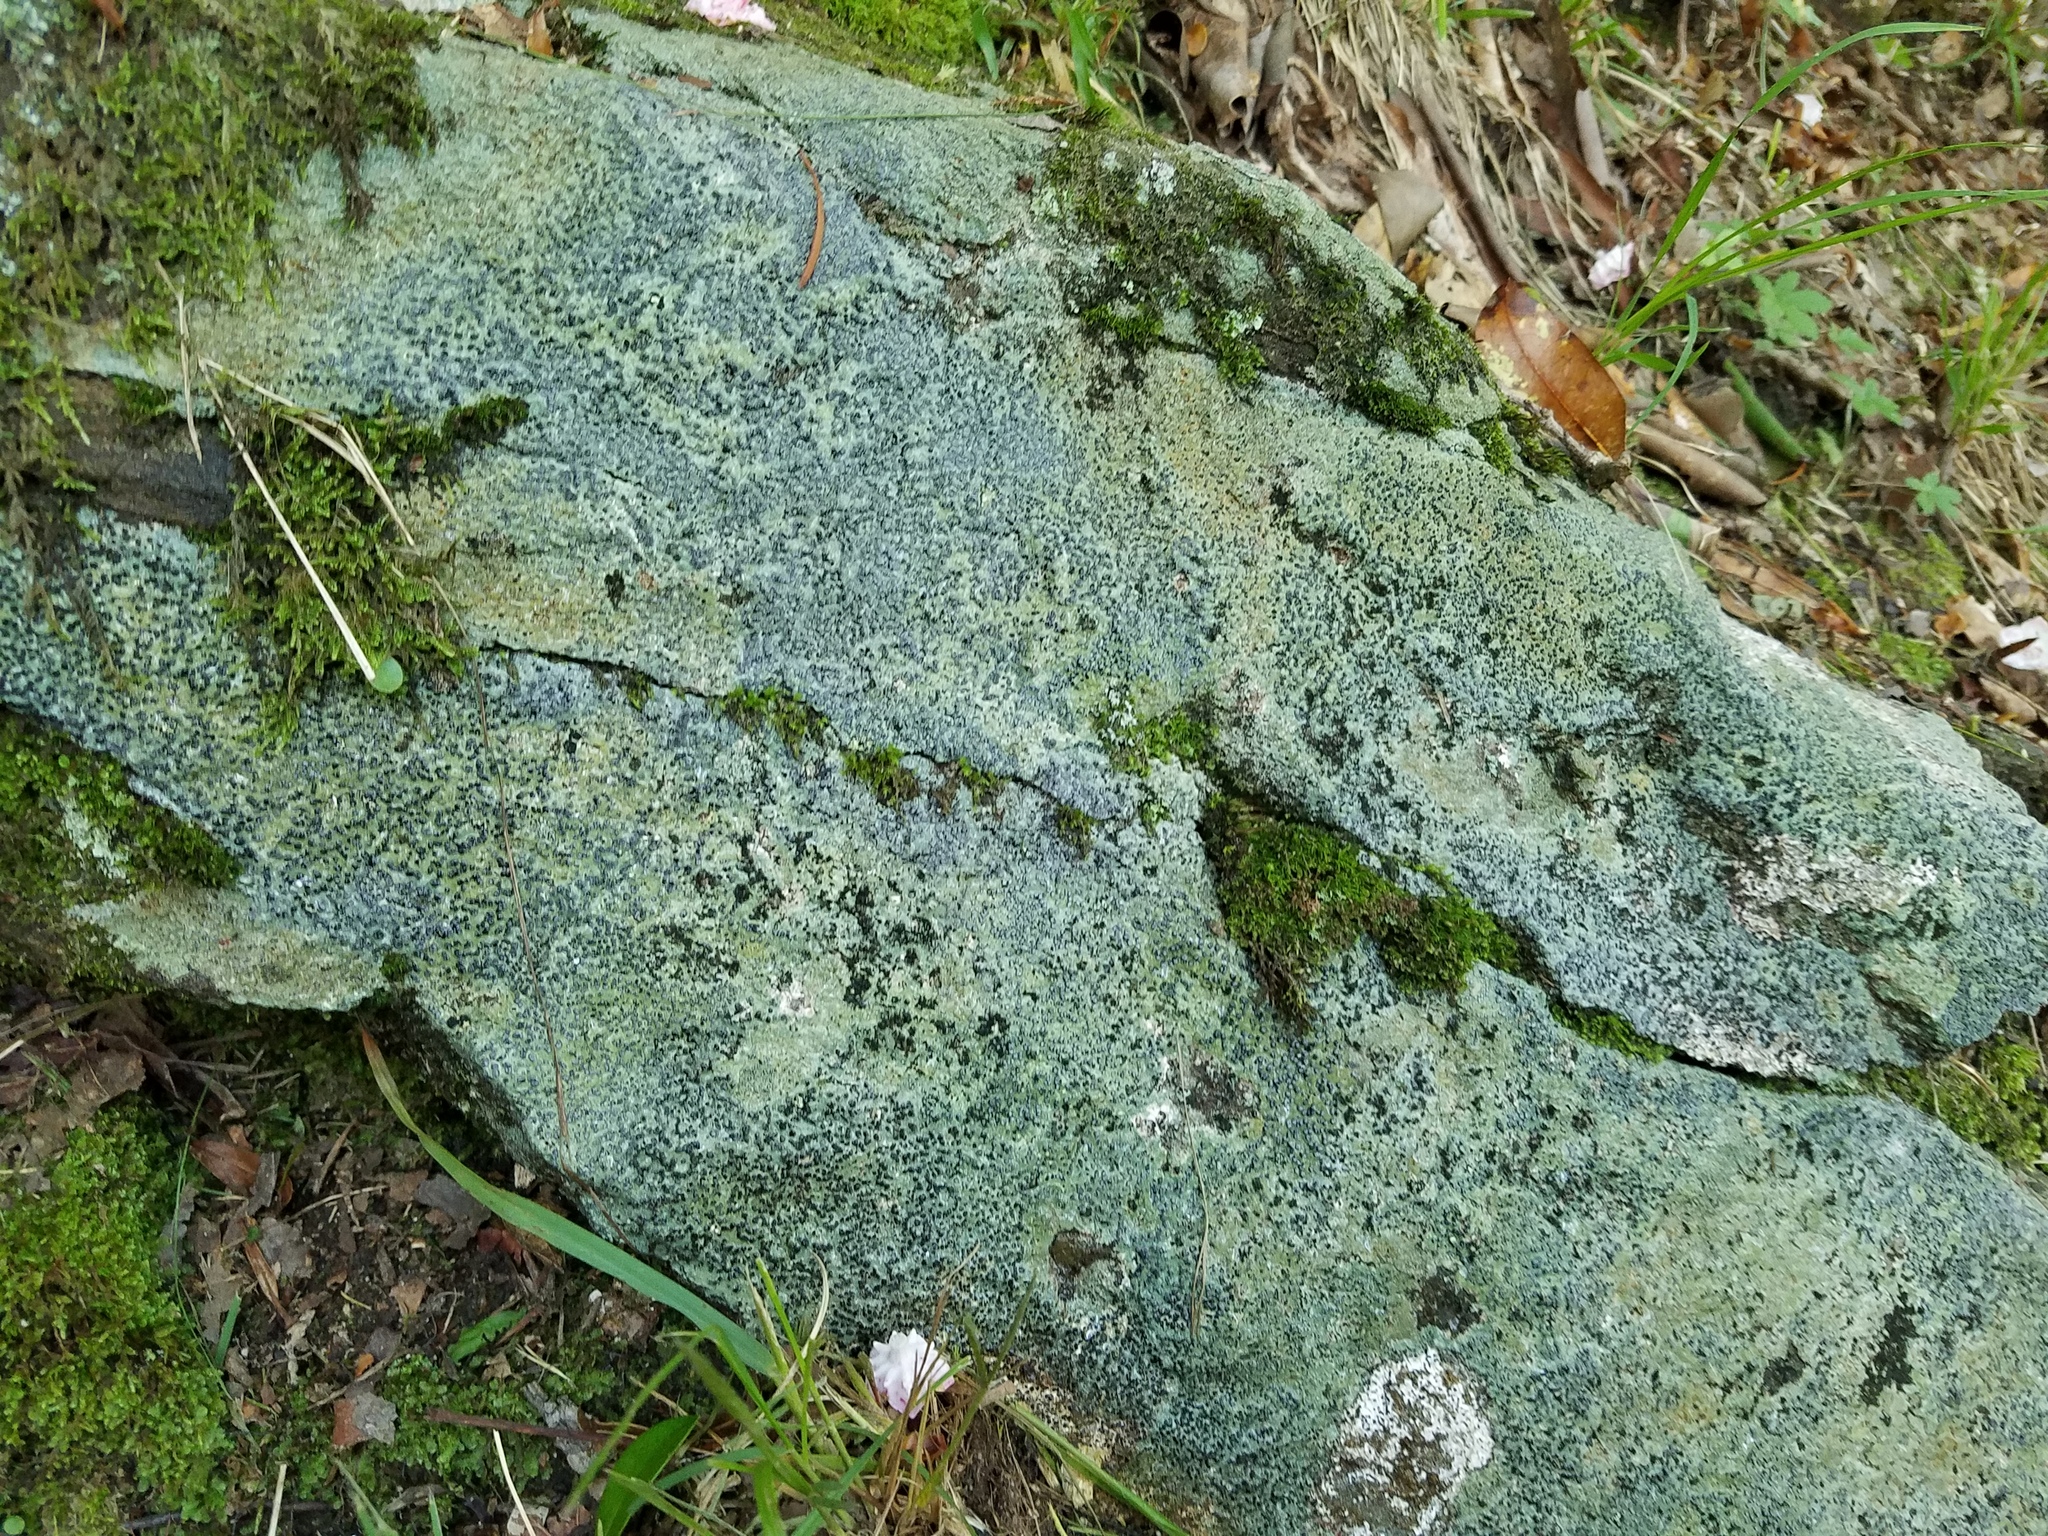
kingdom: Fungi
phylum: Ascomycota
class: Lecanoromycetes
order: Lecideales
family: Lecideaceae
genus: Porpidia
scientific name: Porpidia albocaerulescens
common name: Smokey-eyed boulder lichen
